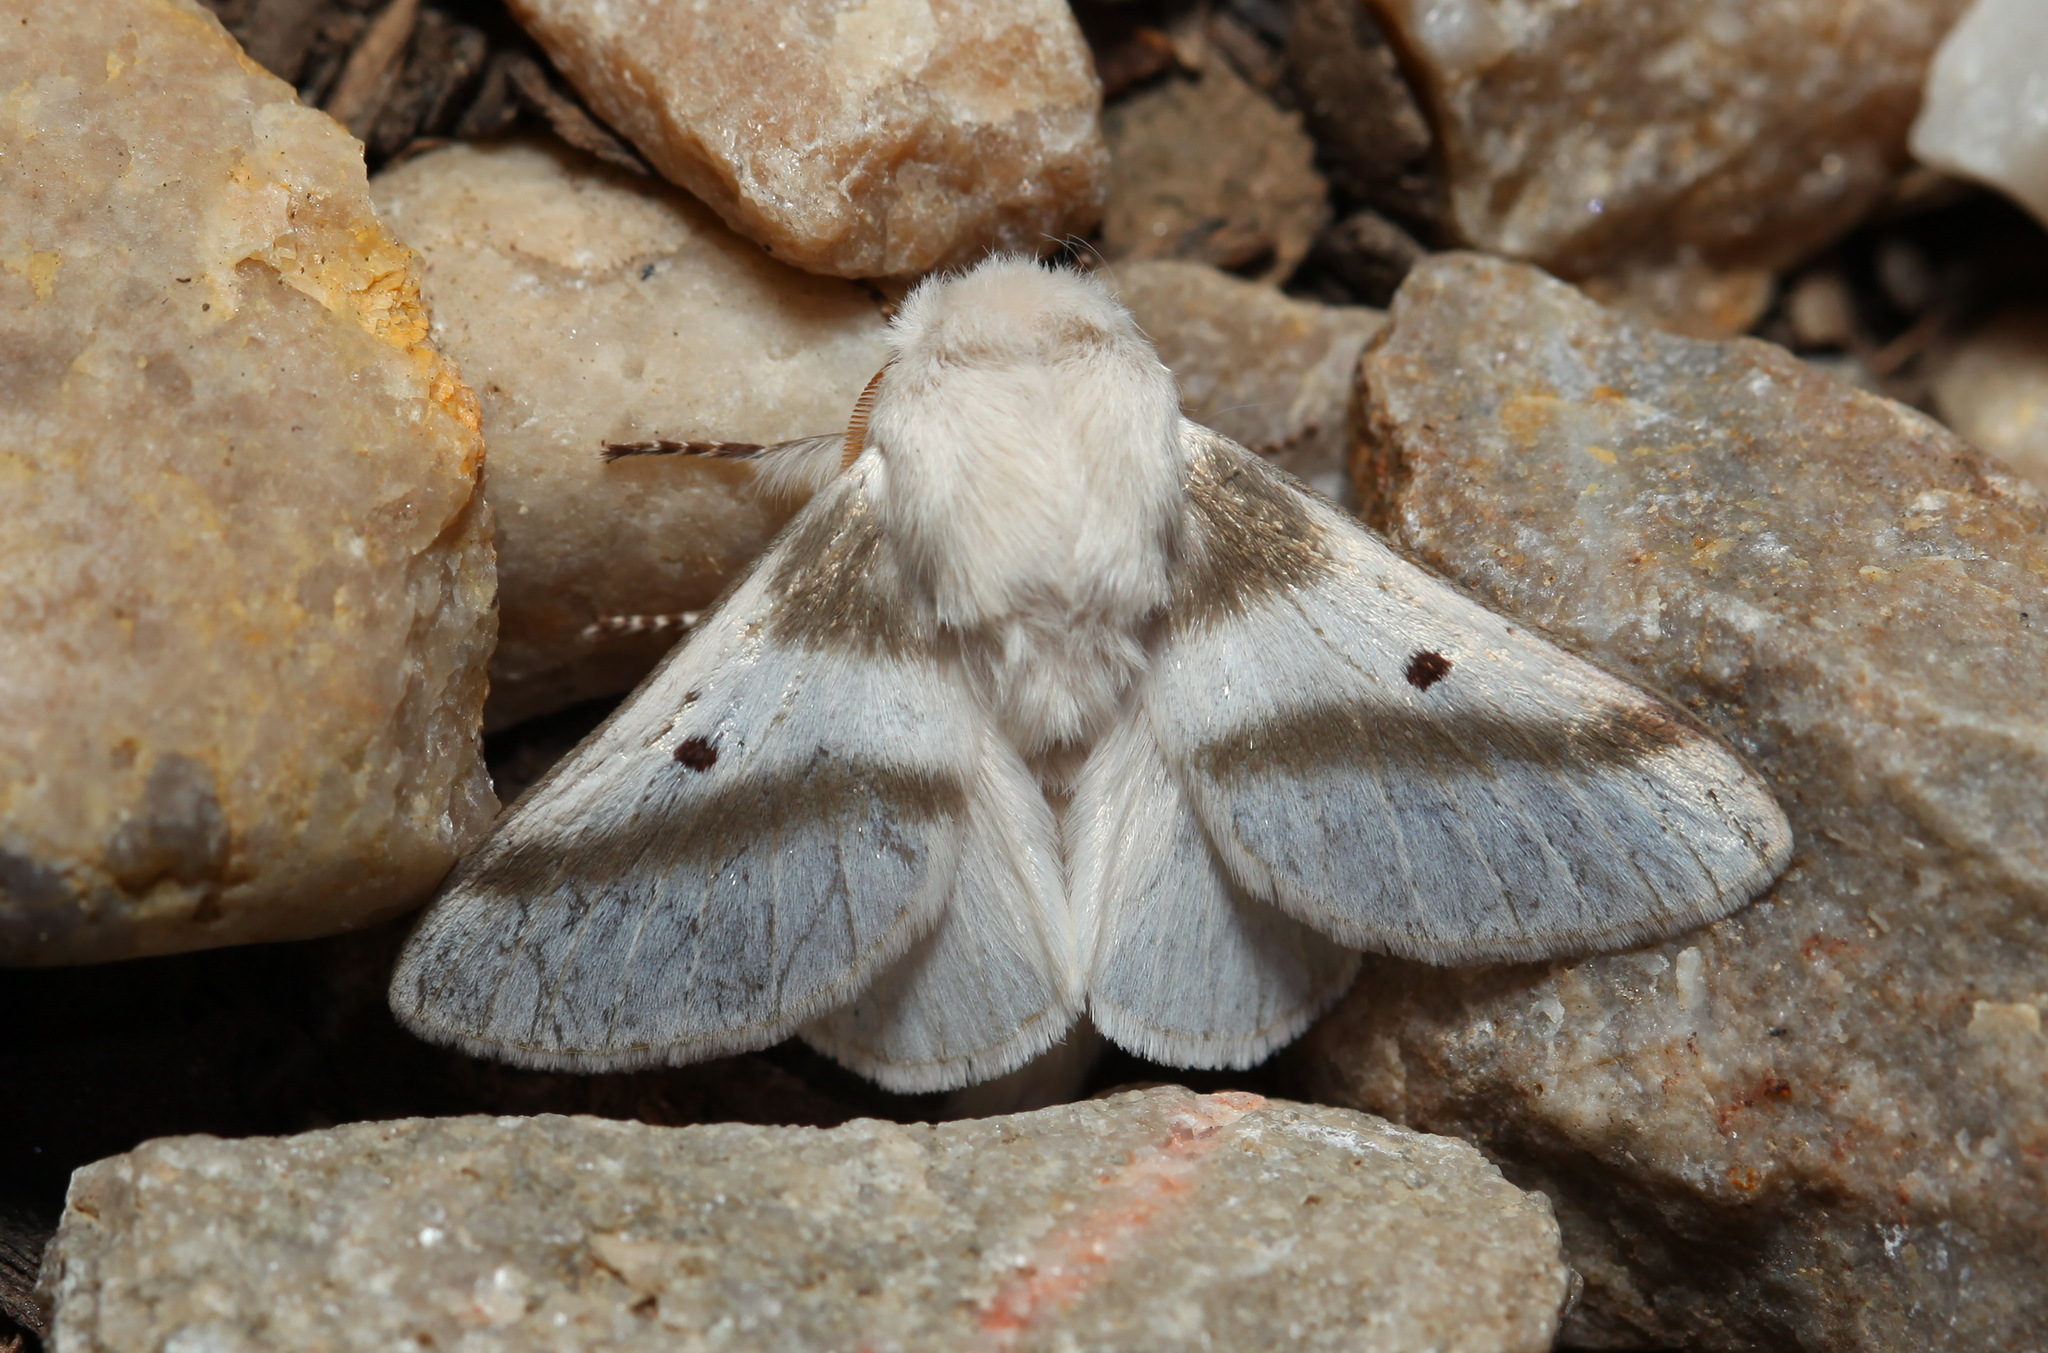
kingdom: Animalia
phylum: Arthropoda
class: Insecta
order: Lepidoptera
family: Lasiocampidae
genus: Bombycomorpha
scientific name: Bombycomorpha bifascia
